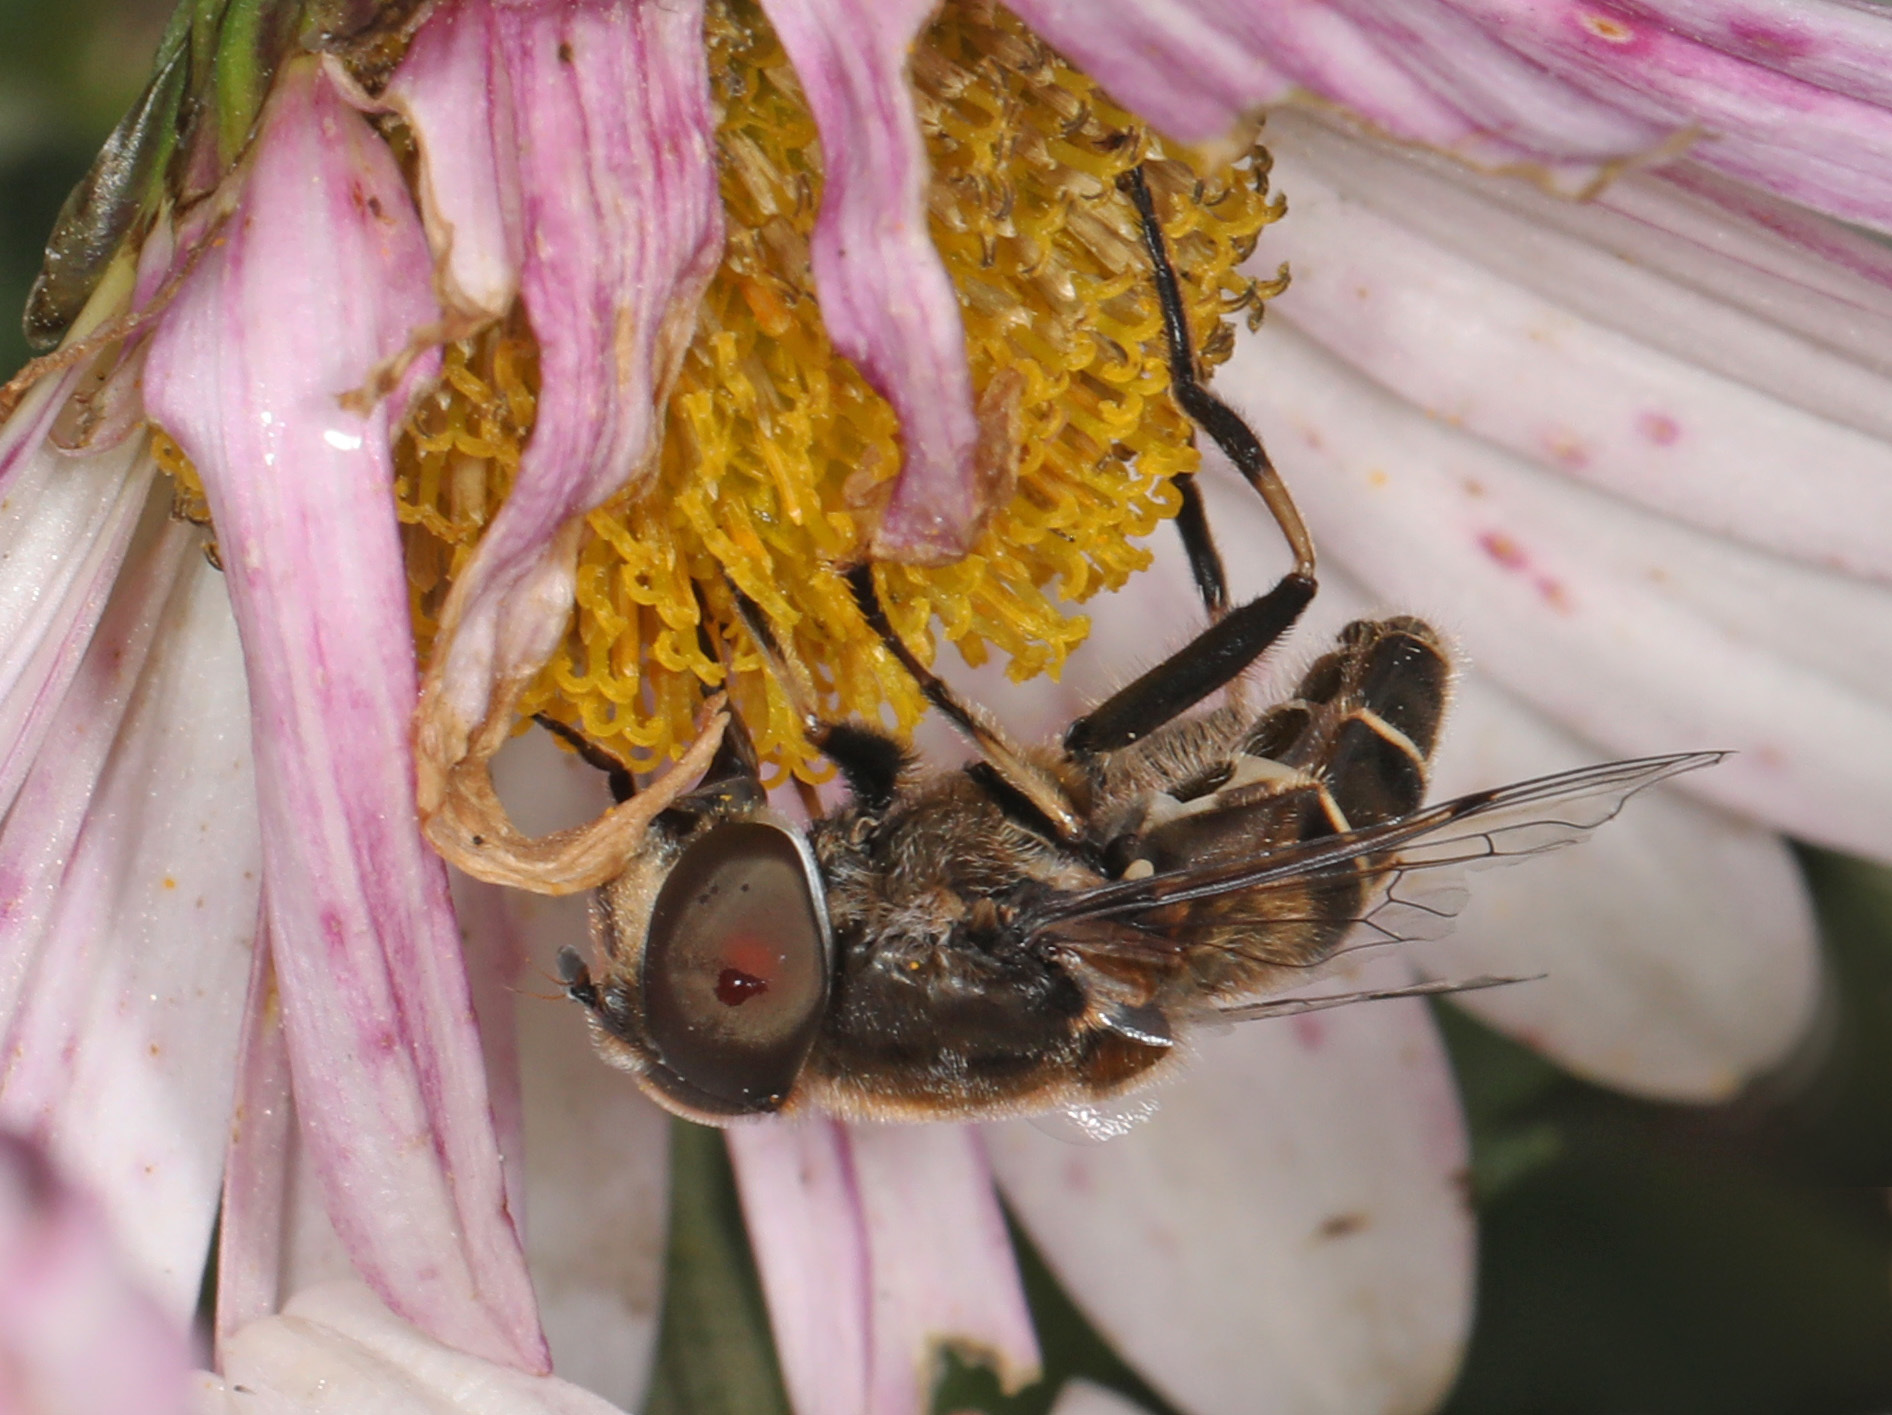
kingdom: Animalia
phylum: Arthropoda
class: Insecta
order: Diptera
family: Syrphidae
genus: Eristalis
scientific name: Eristalis dimidiata
